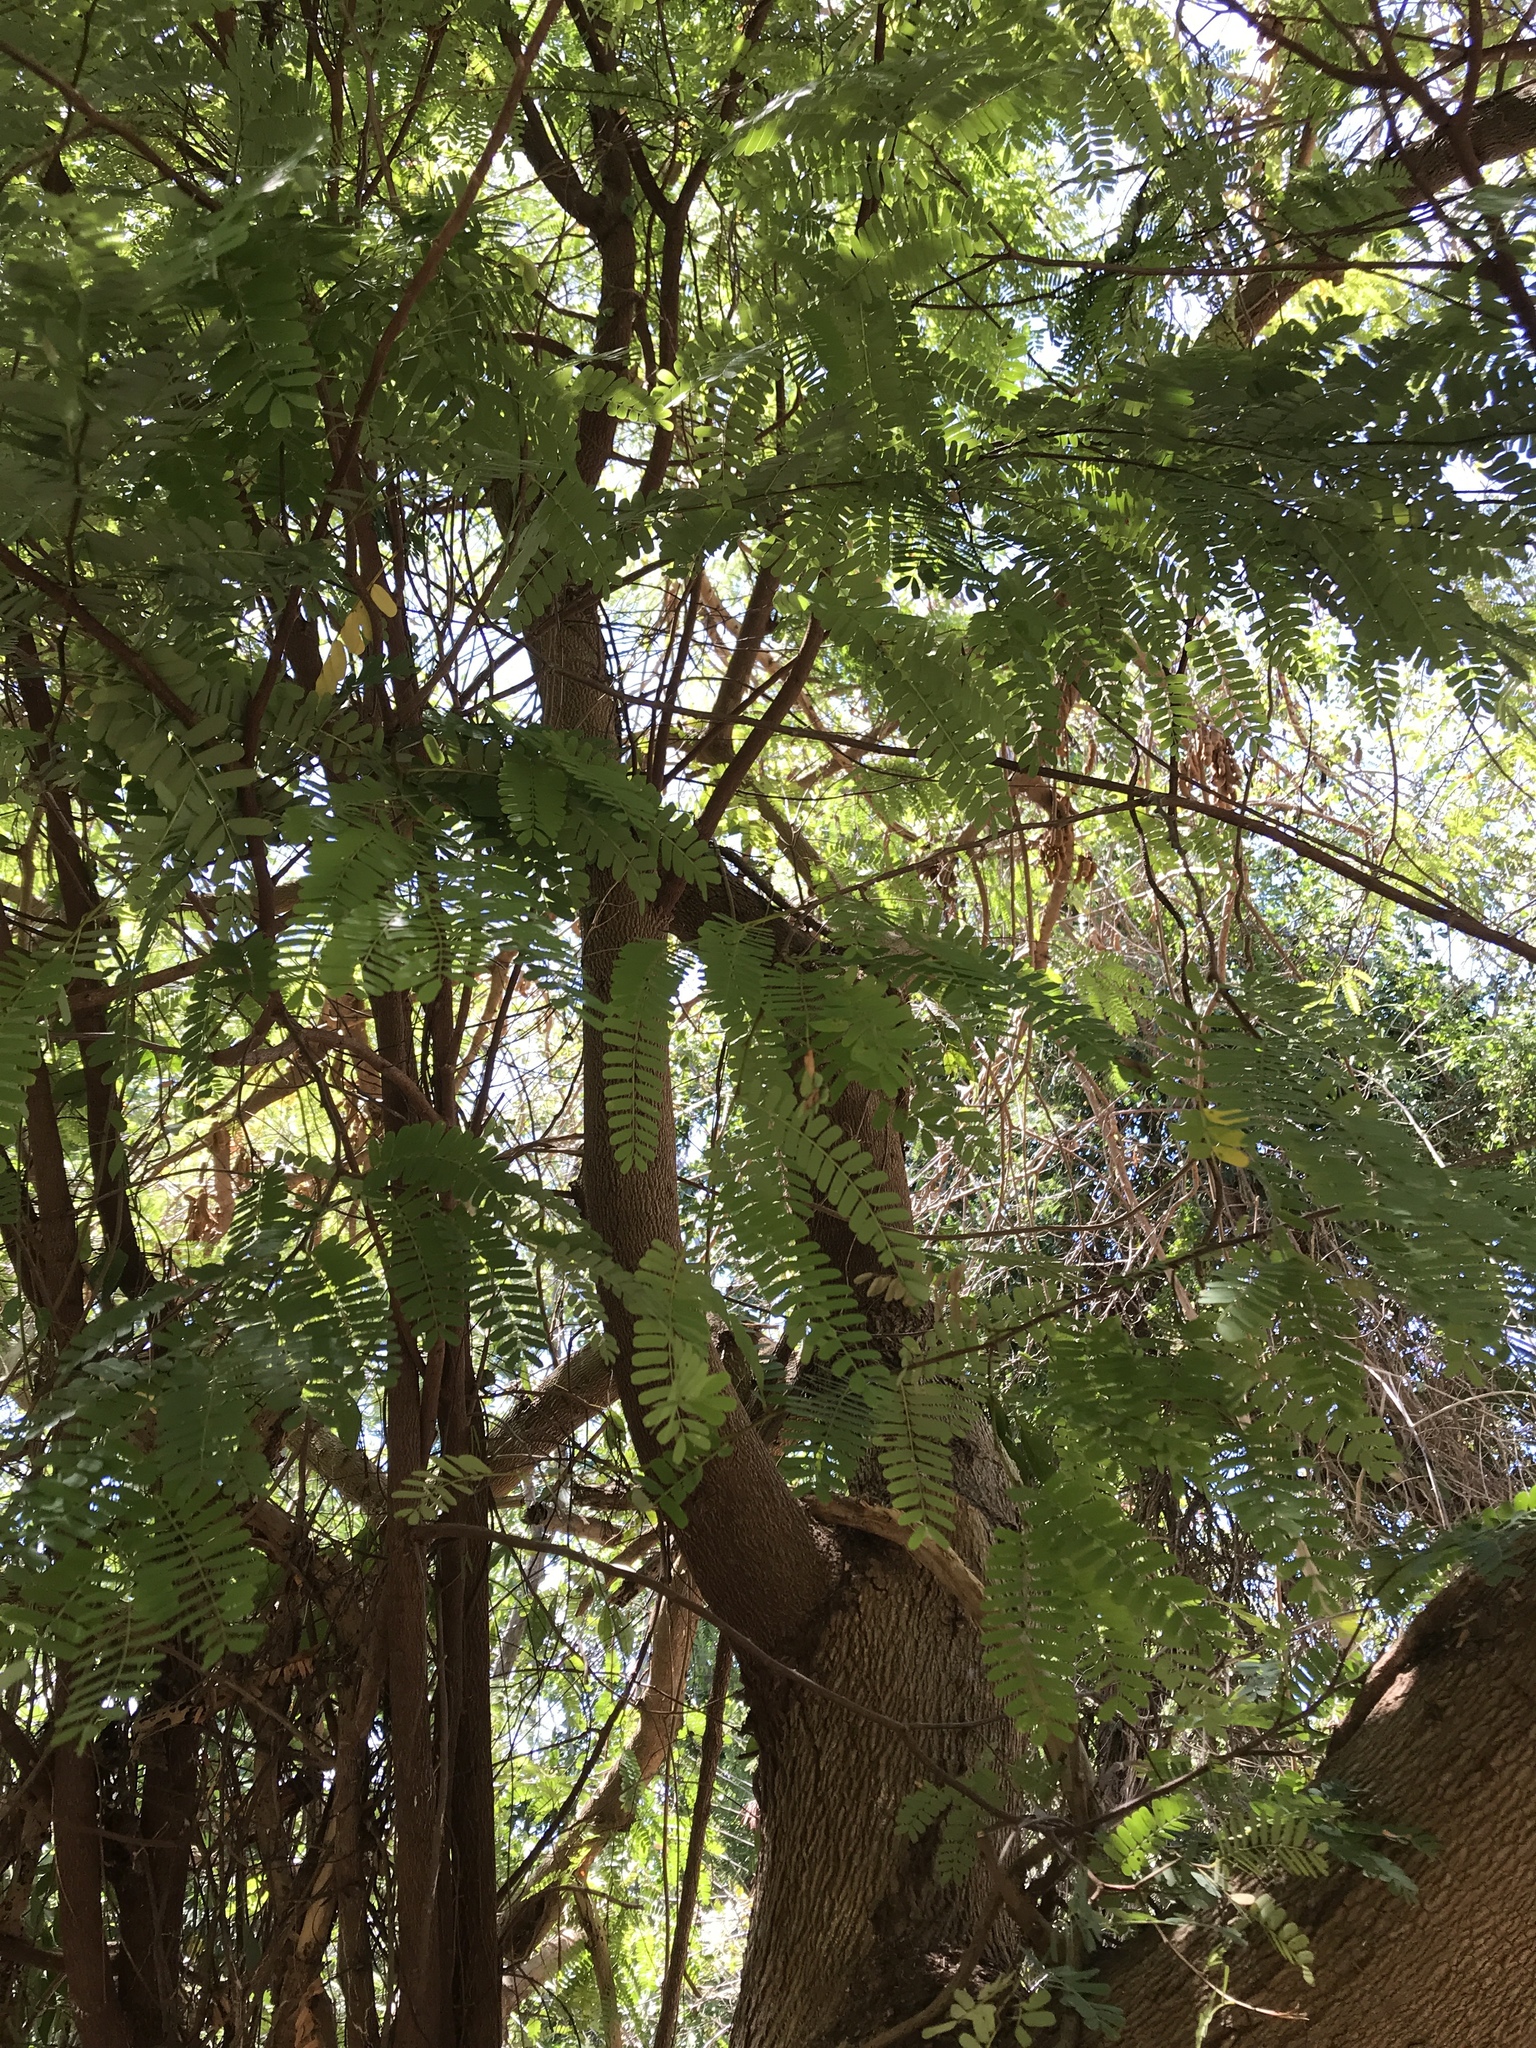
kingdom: Plantae
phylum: Tracheophyta
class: Magnoliopsida
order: Fabales
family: Fabaceae
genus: Tamarindus
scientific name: Tamarindus indica
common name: Tamarind
